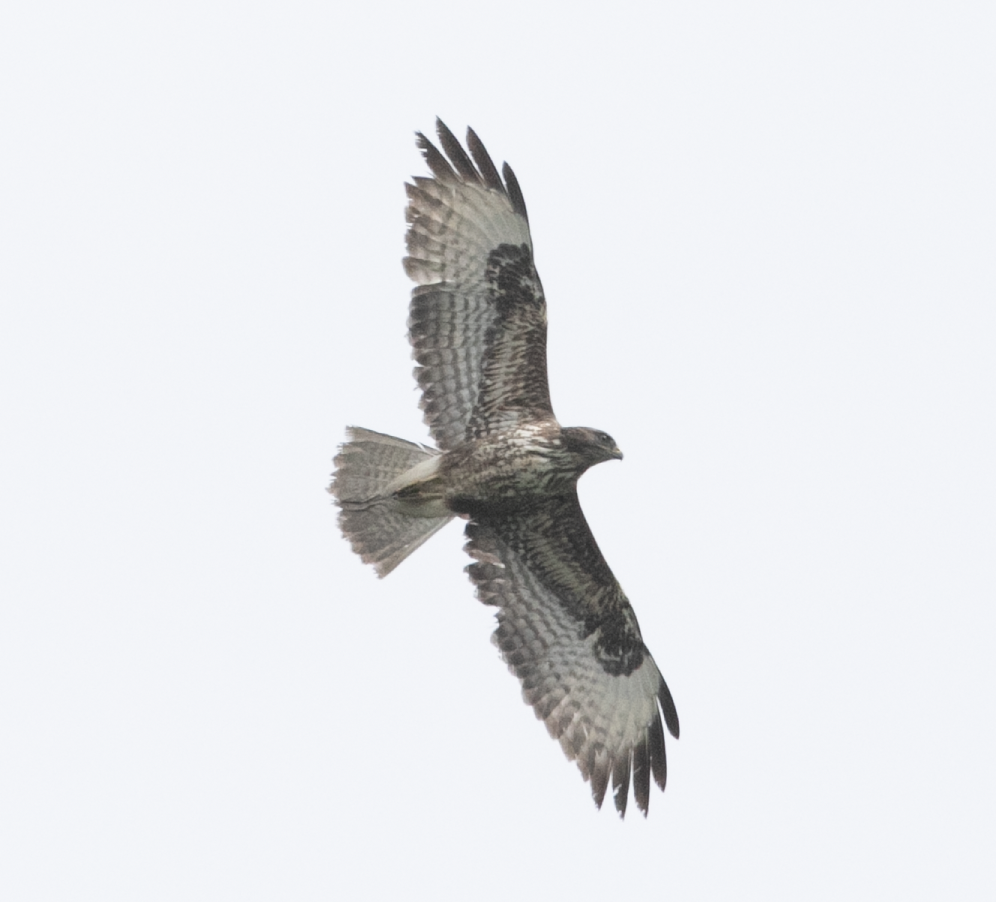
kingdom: Animalia
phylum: Chordata
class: Aves
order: Accipitriformes
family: Accipitridae
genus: Buteo
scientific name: Buteo buteo
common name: Common buzzard
